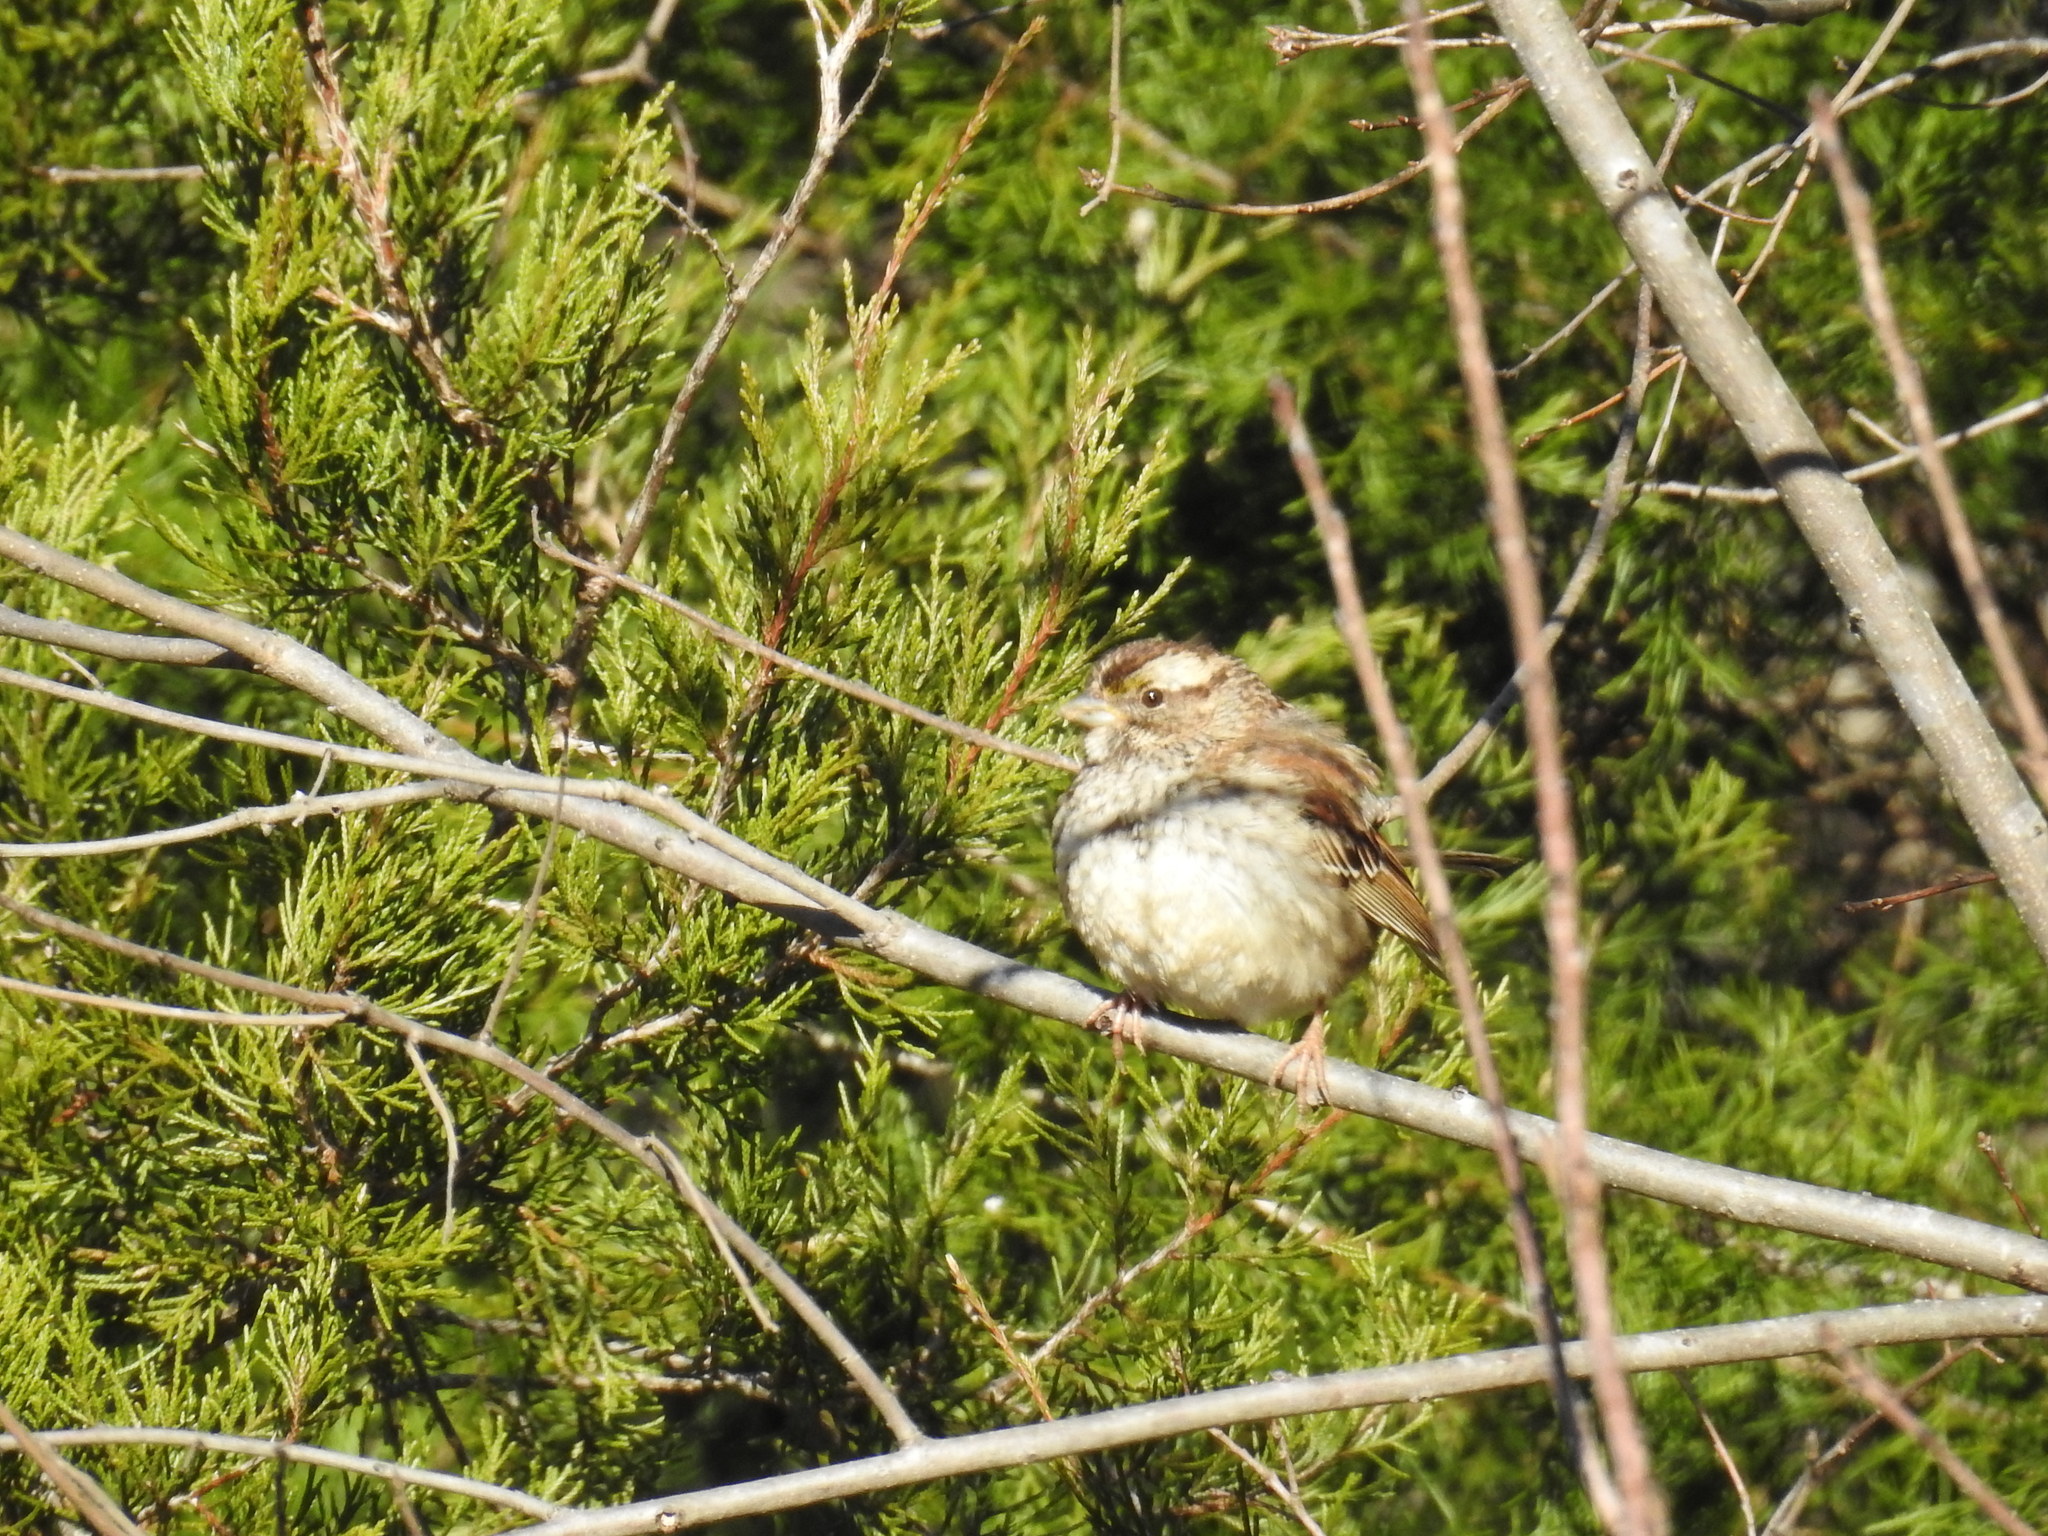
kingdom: Animalia
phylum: Chordata
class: Aves
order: Passeriformes
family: Passerellidae
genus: Zonotrichia
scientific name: Zonotrichia albicollis
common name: White-throated sparrow
